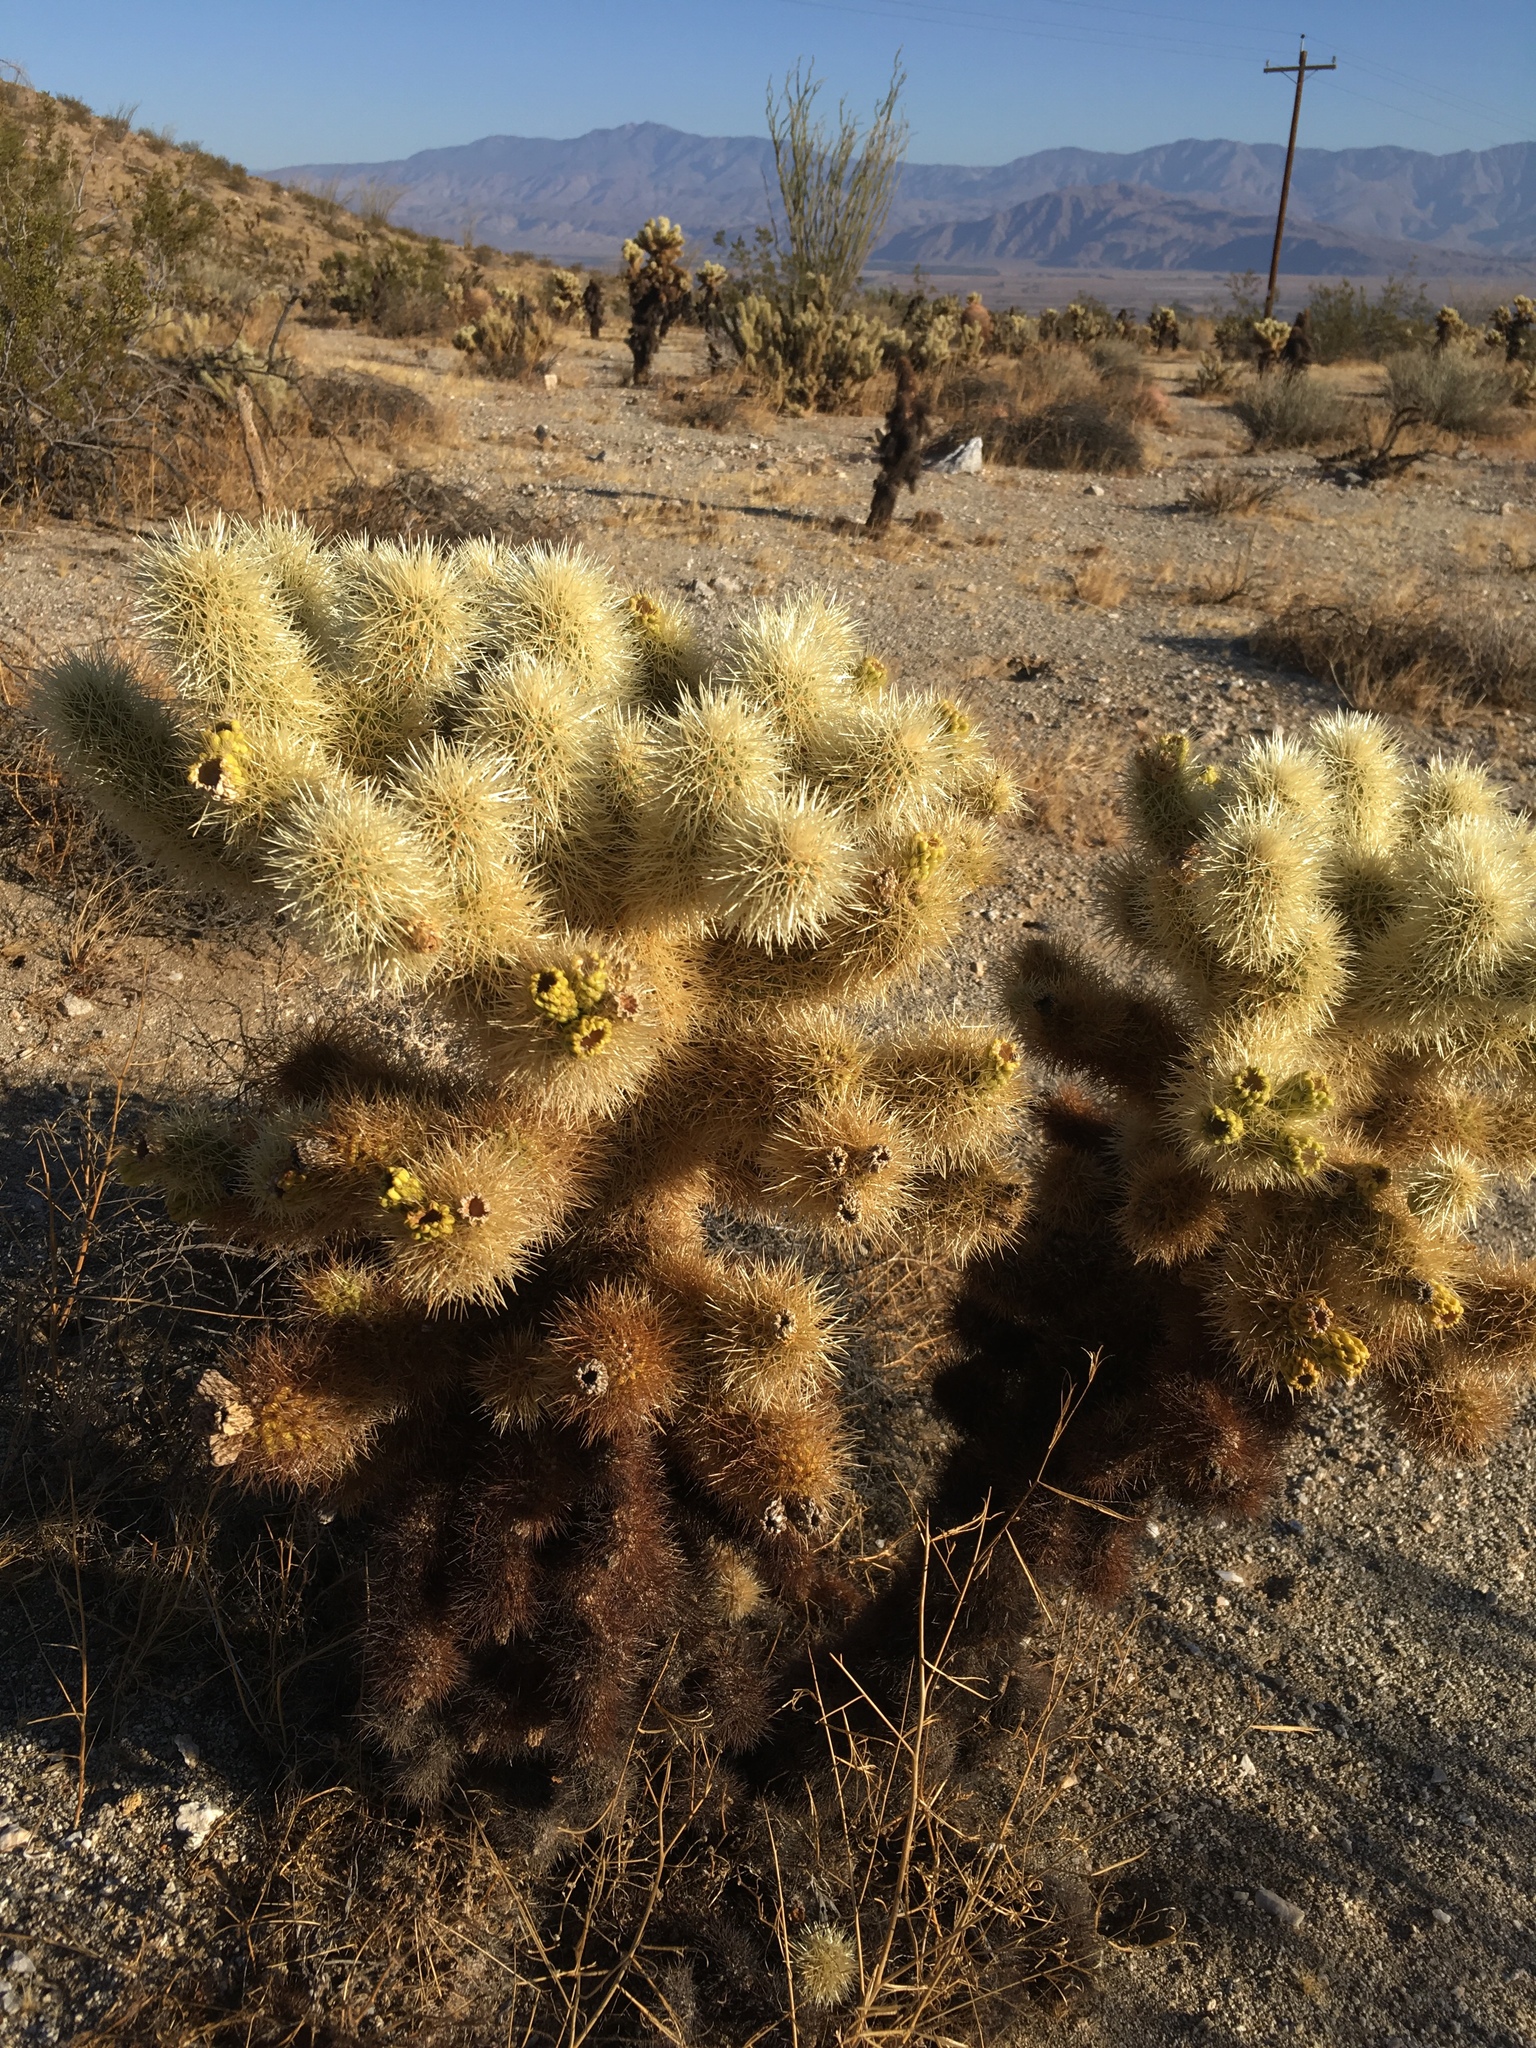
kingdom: Plantae
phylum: Tracheophyta
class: Magnoliopsida
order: Caryophyllales
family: Cactaceae
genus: Cylindropuntia
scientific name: Cylindropuntia fosbergii
